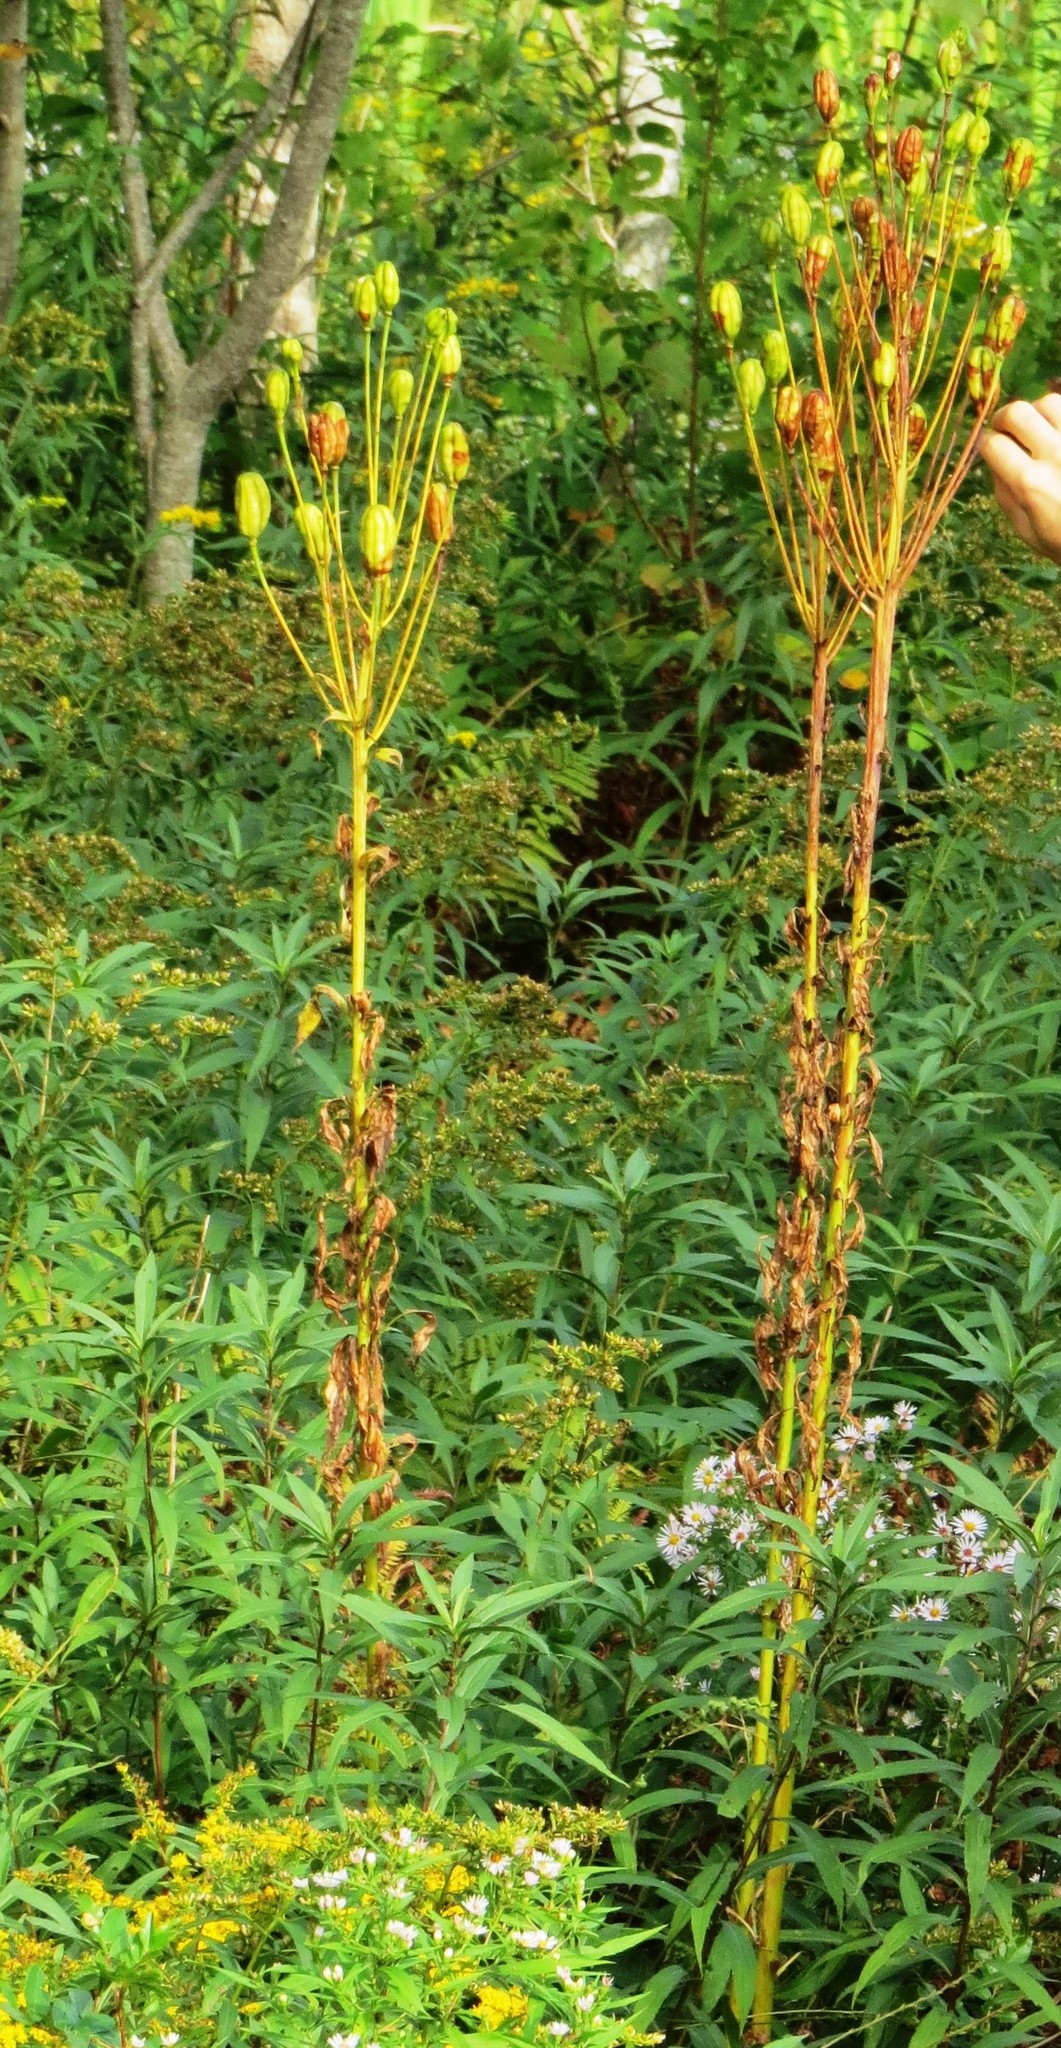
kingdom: Plantae
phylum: Tracheophyta
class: Liliopsida
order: Liliales
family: Liliaceae
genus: Lilium
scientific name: Lilium canadense
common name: Canada lily
